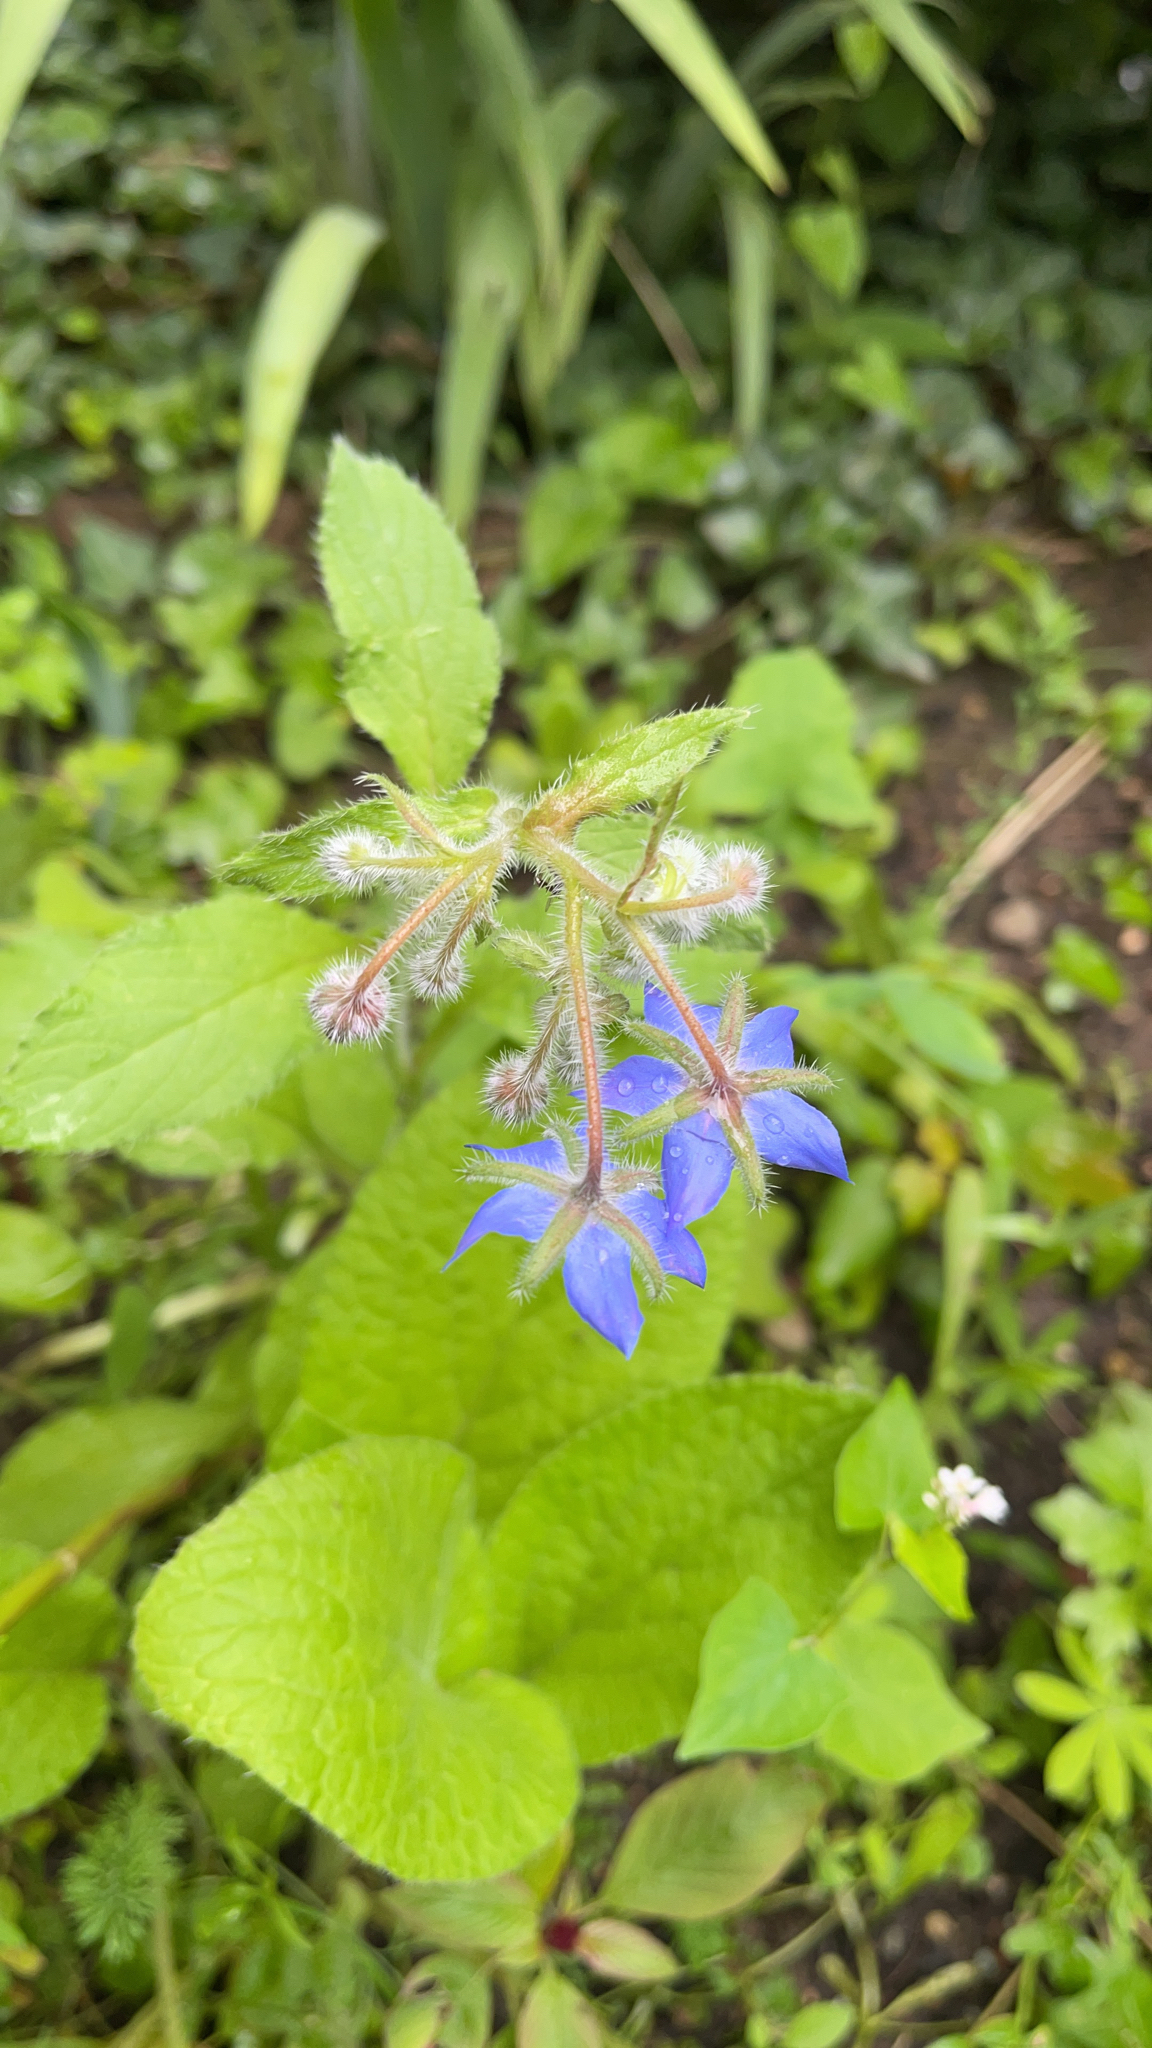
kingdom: Plantae
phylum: Tracheophyta
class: Magnoliopsida
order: Boraginales
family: Boraginaceae
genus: Borago
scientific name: Borago officinalis
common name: Borage
